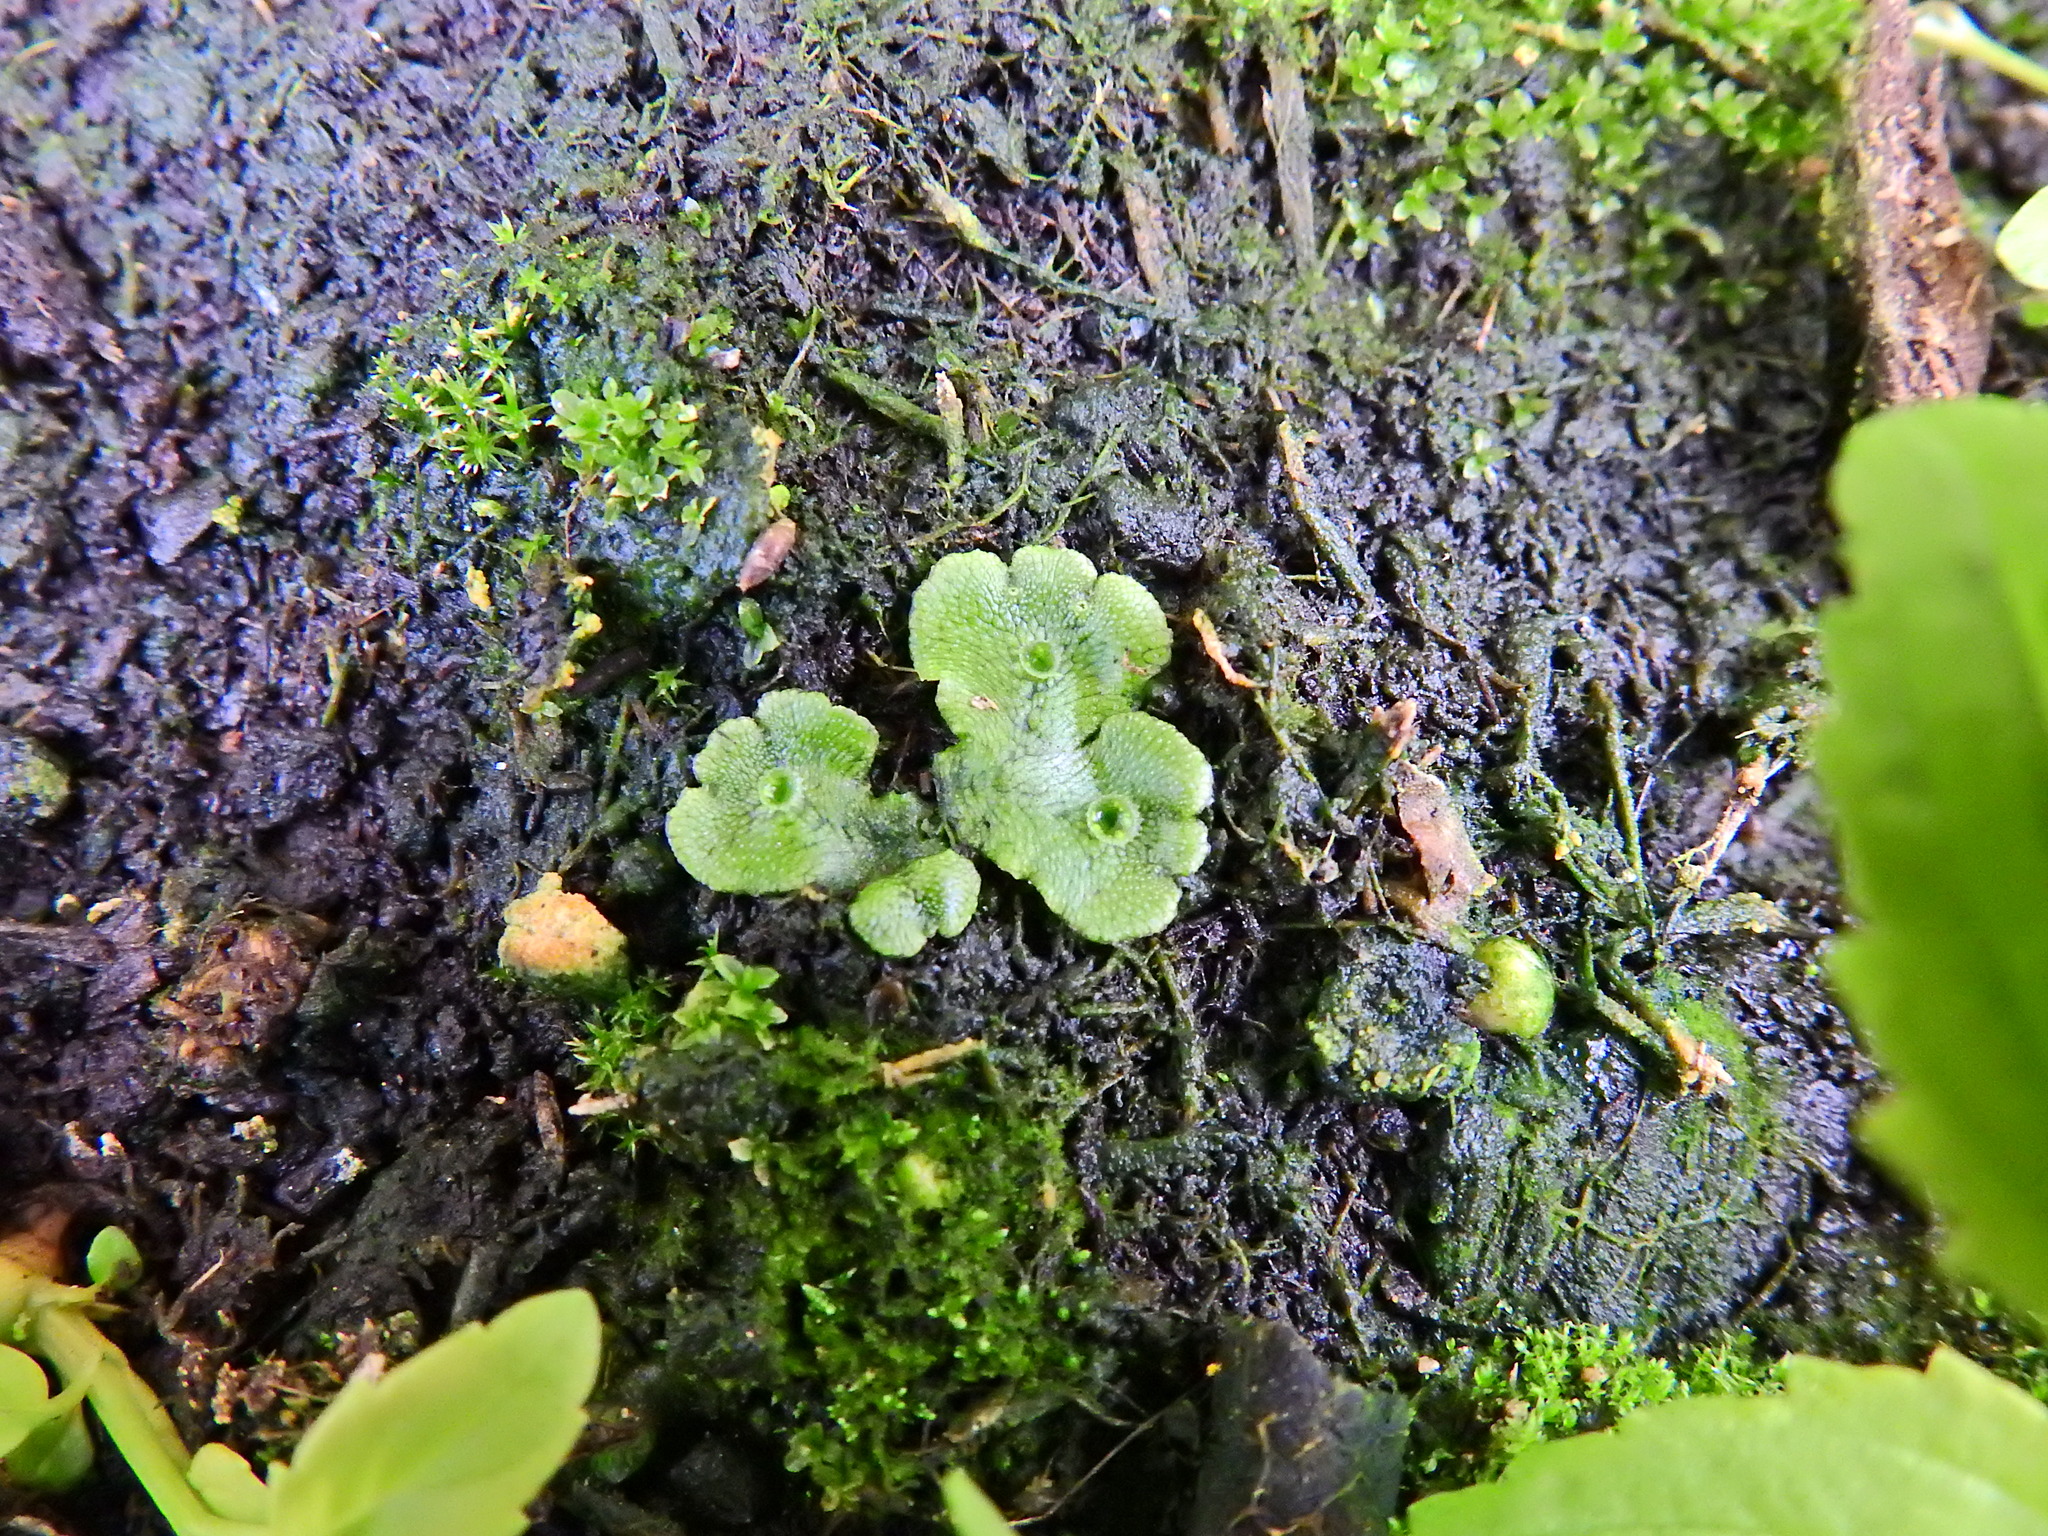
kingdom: Plantae
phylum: Marchantiophyta
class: Marchantiopsida
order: Marchantiales
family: Marchantiaceae
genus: Marchantia
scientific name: Marchantia polymorpha
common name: Common liverwort
